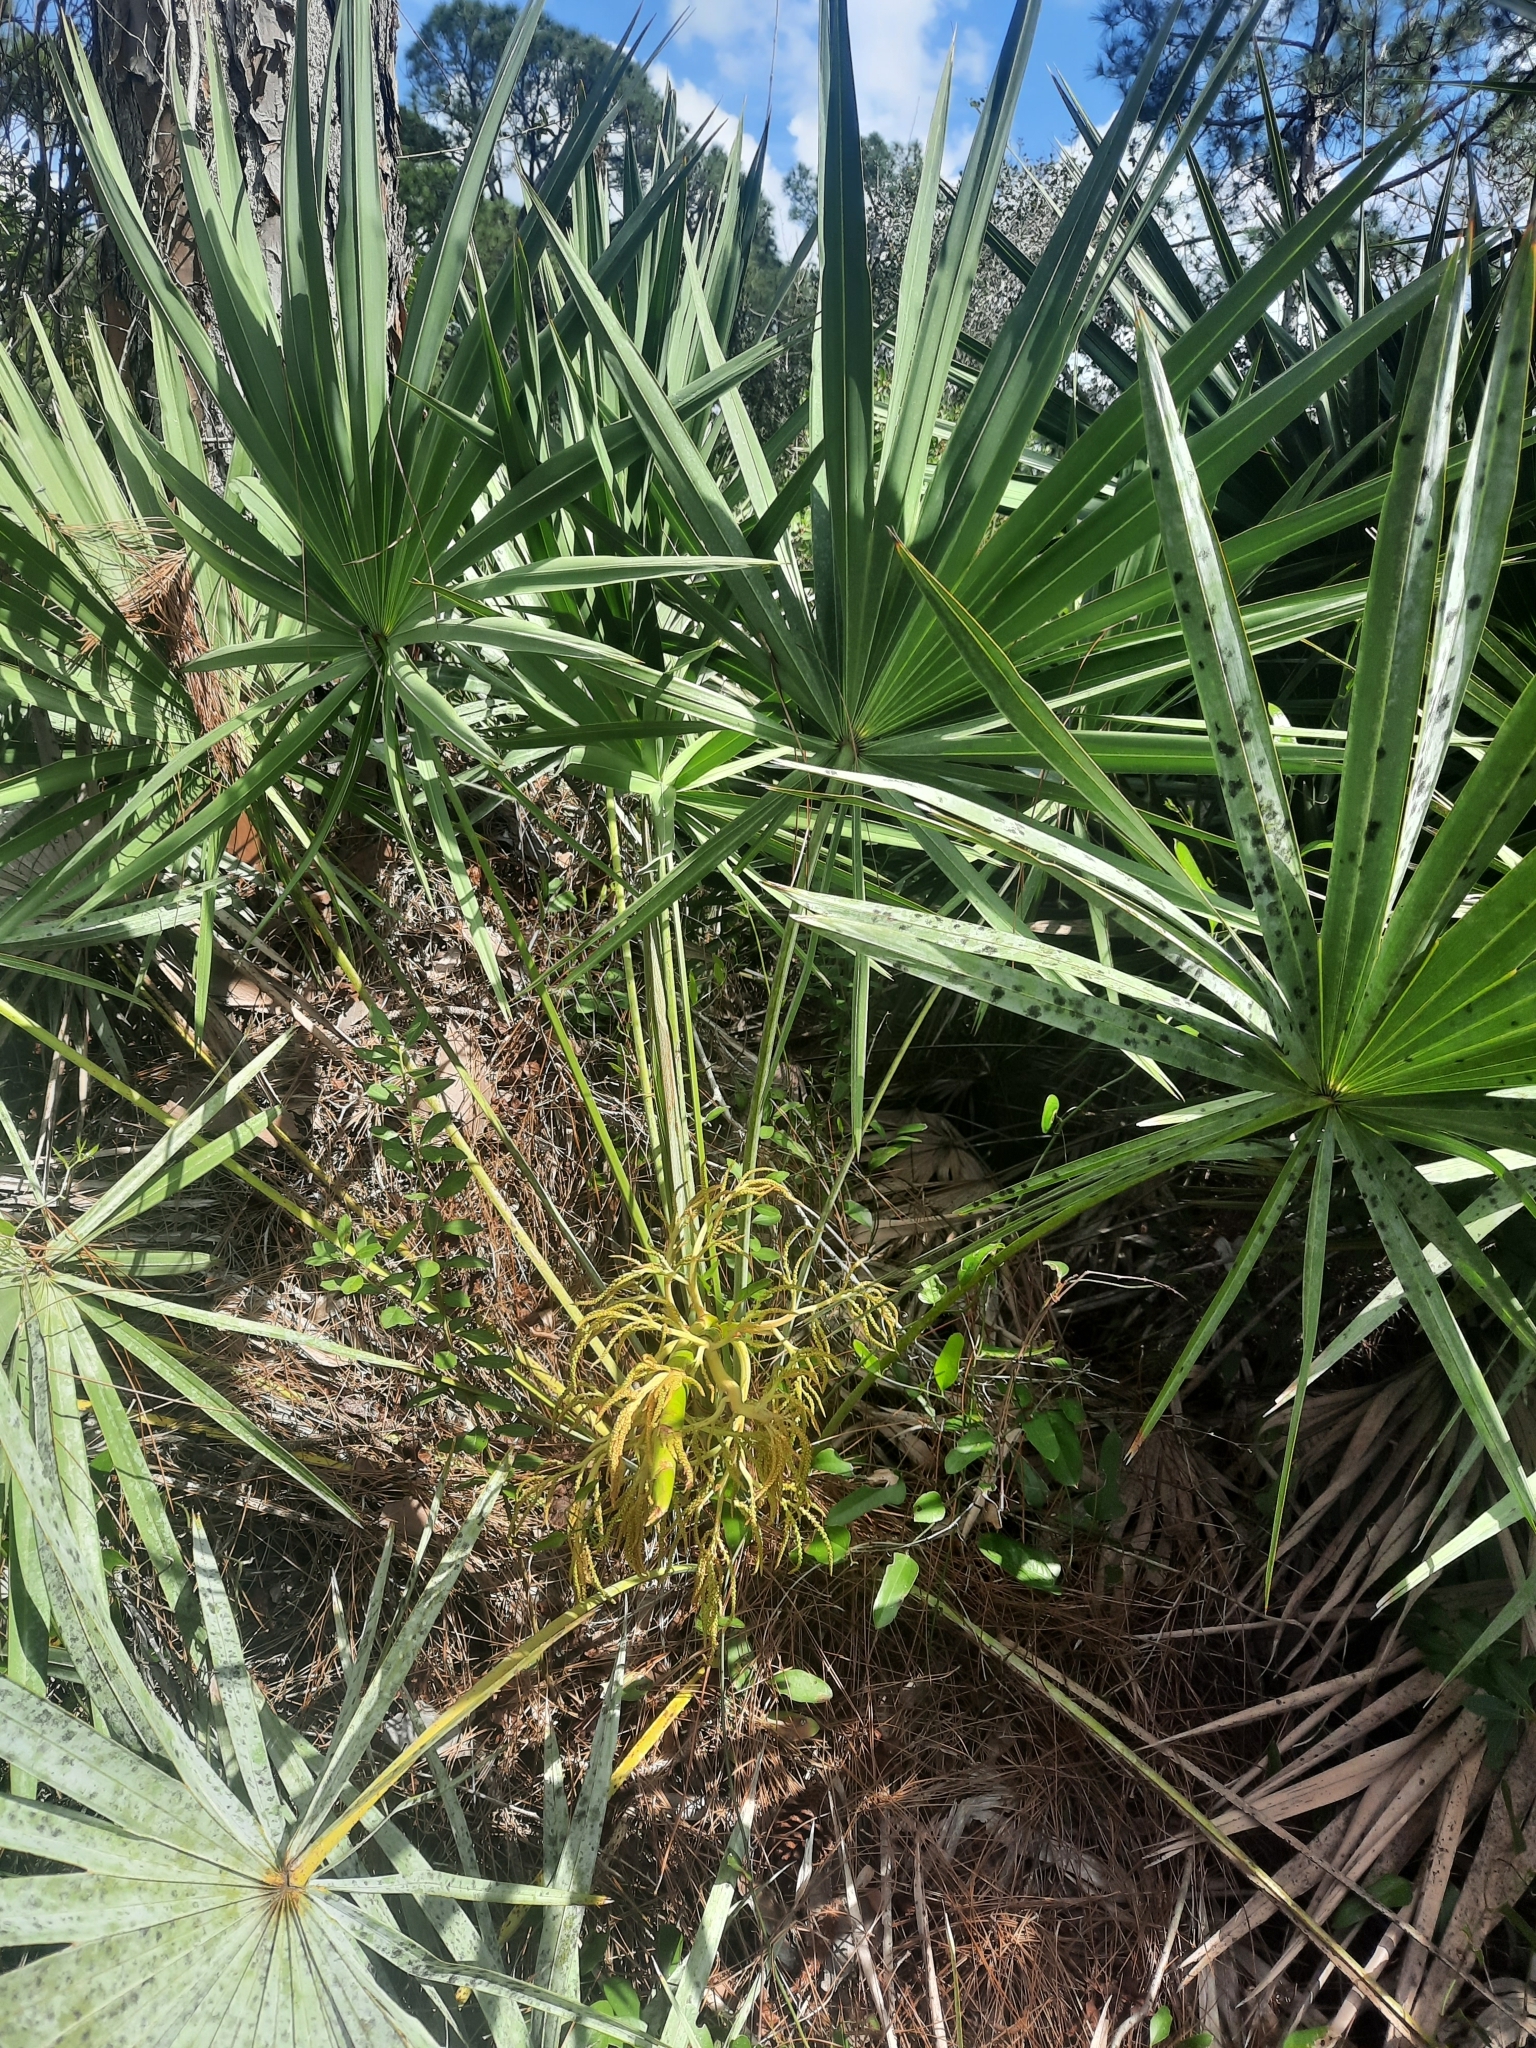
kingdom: Plantae
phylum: Tracheophyta
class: Liliopsida
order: Arecales
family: Arecaceae
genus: Serenoa
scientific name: Serenoa repens
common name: Saw-palmetto
